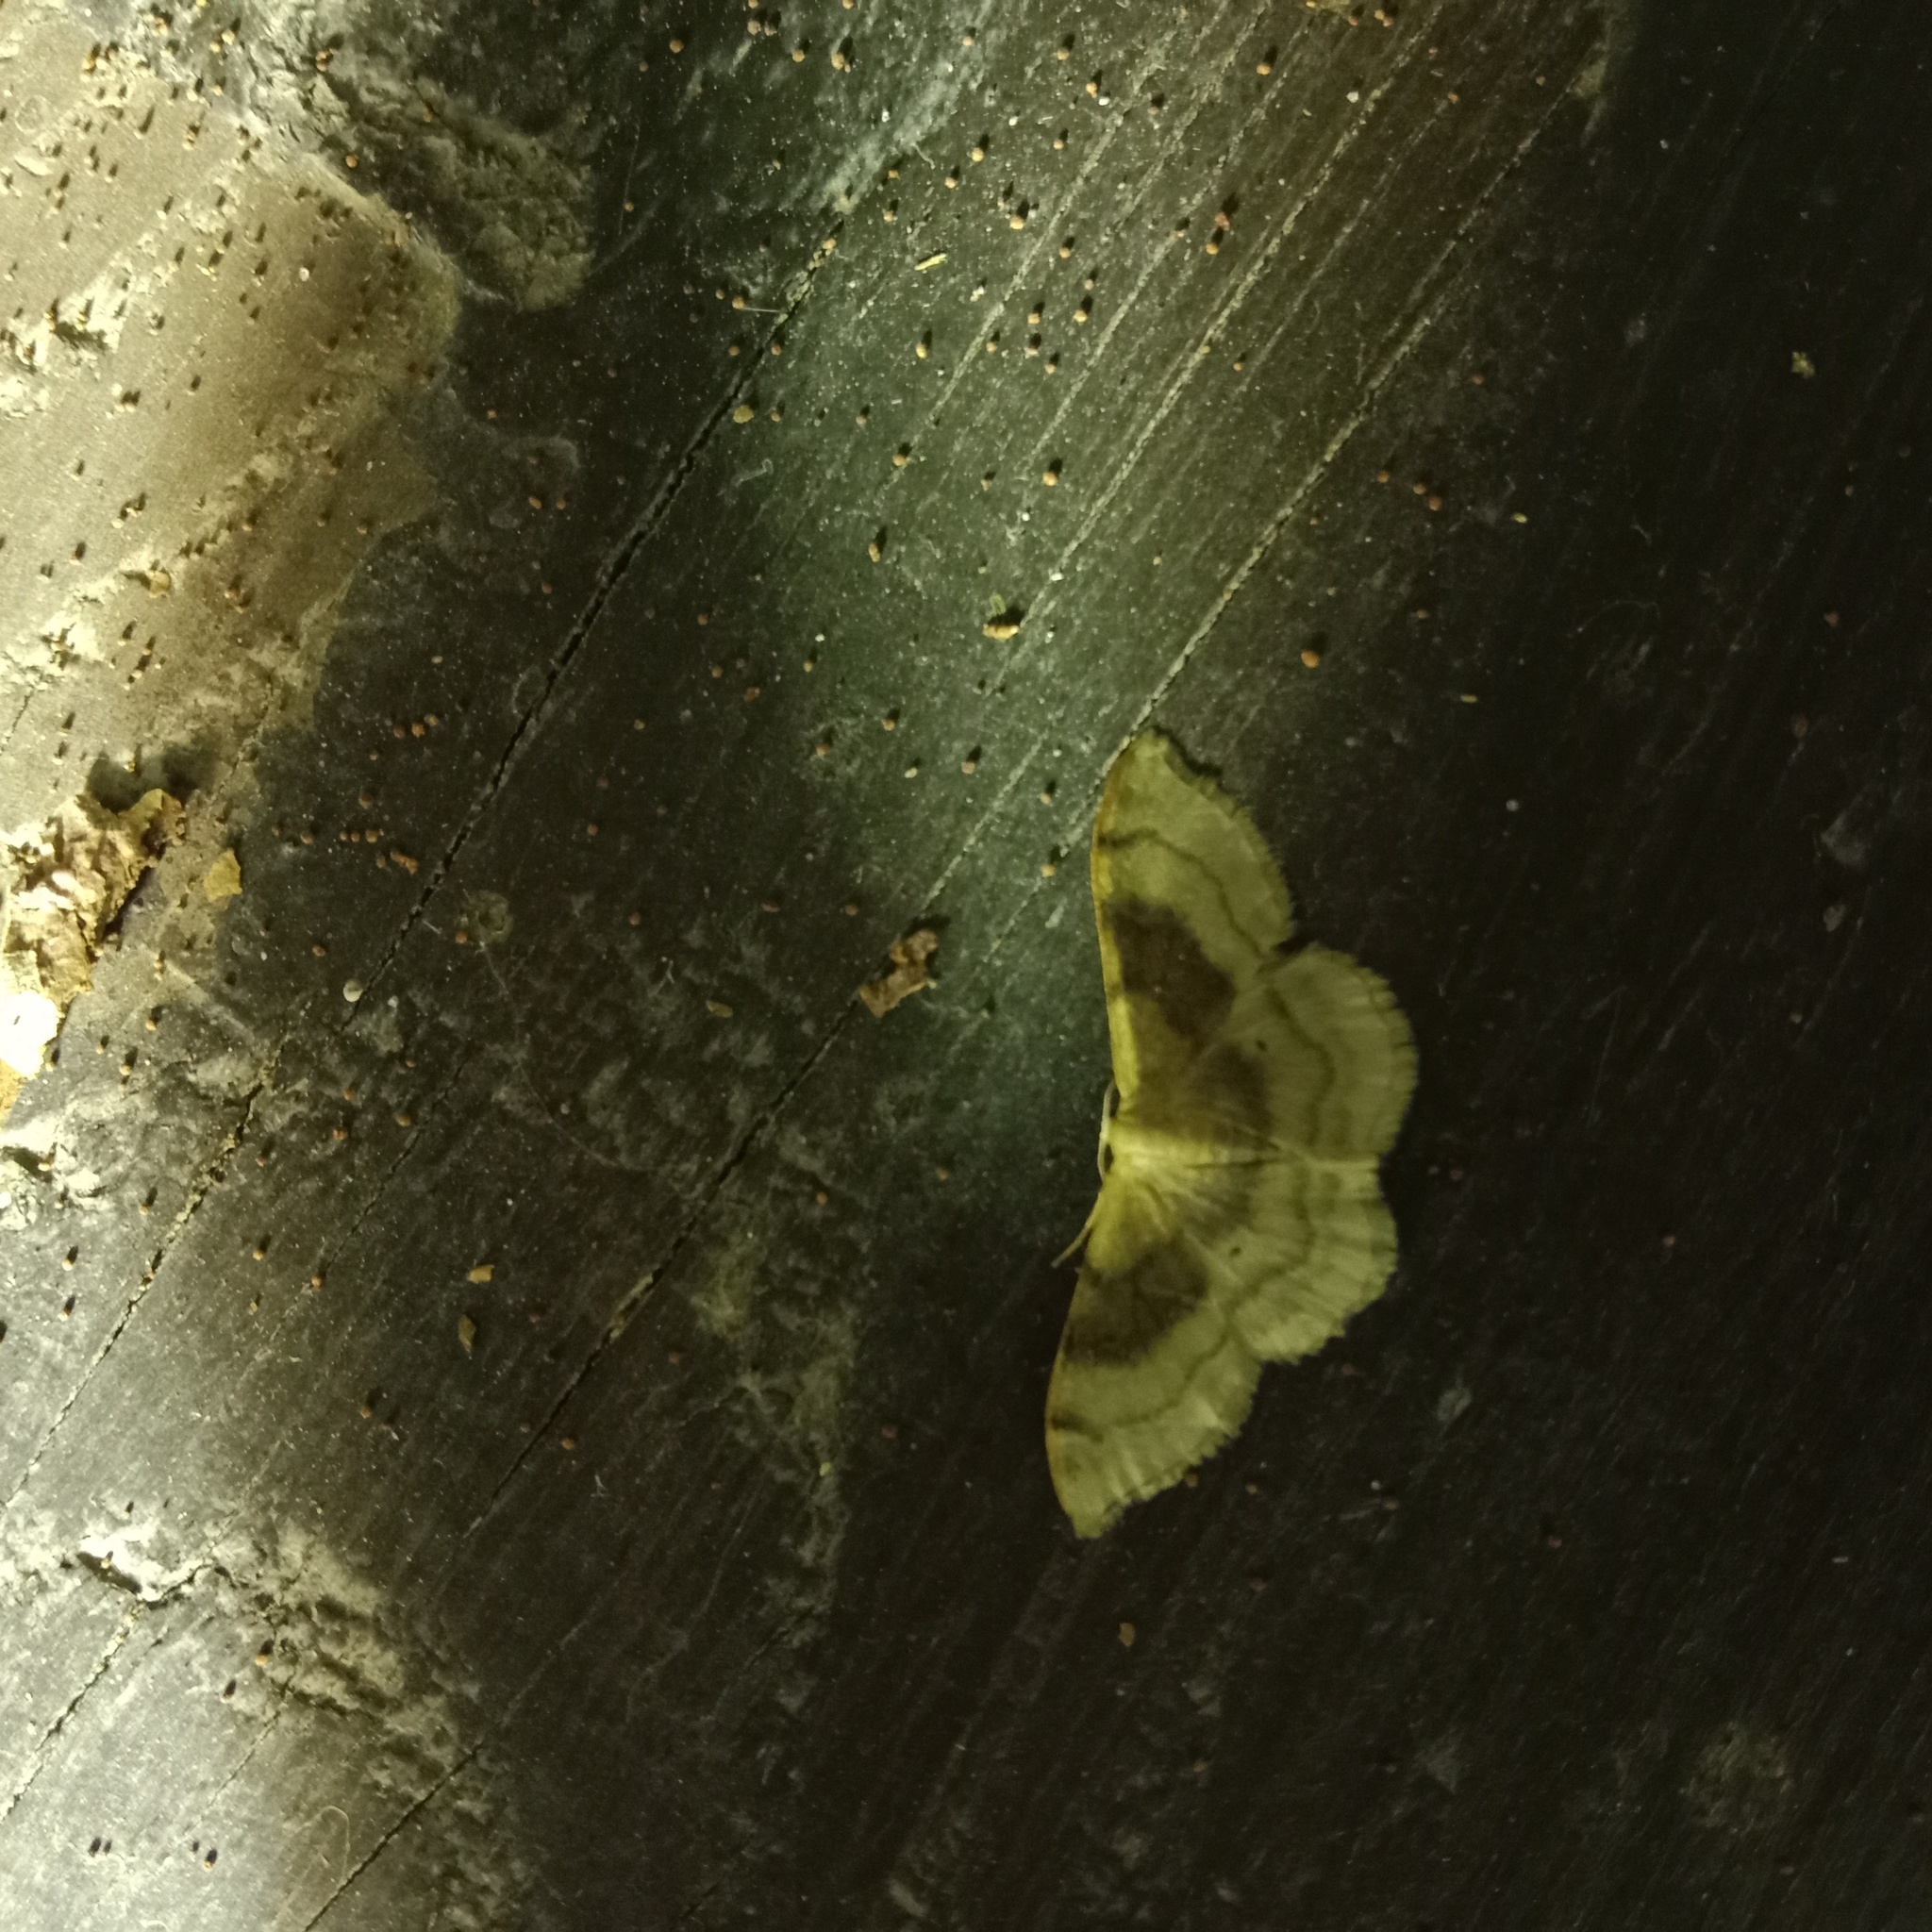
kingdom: Animalia
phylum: Arthropoda
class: Insecta
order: Lepidoptera
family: Geometridae
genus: Idaea
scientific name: Idaea degeneraria
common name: Portland ribbon wave
